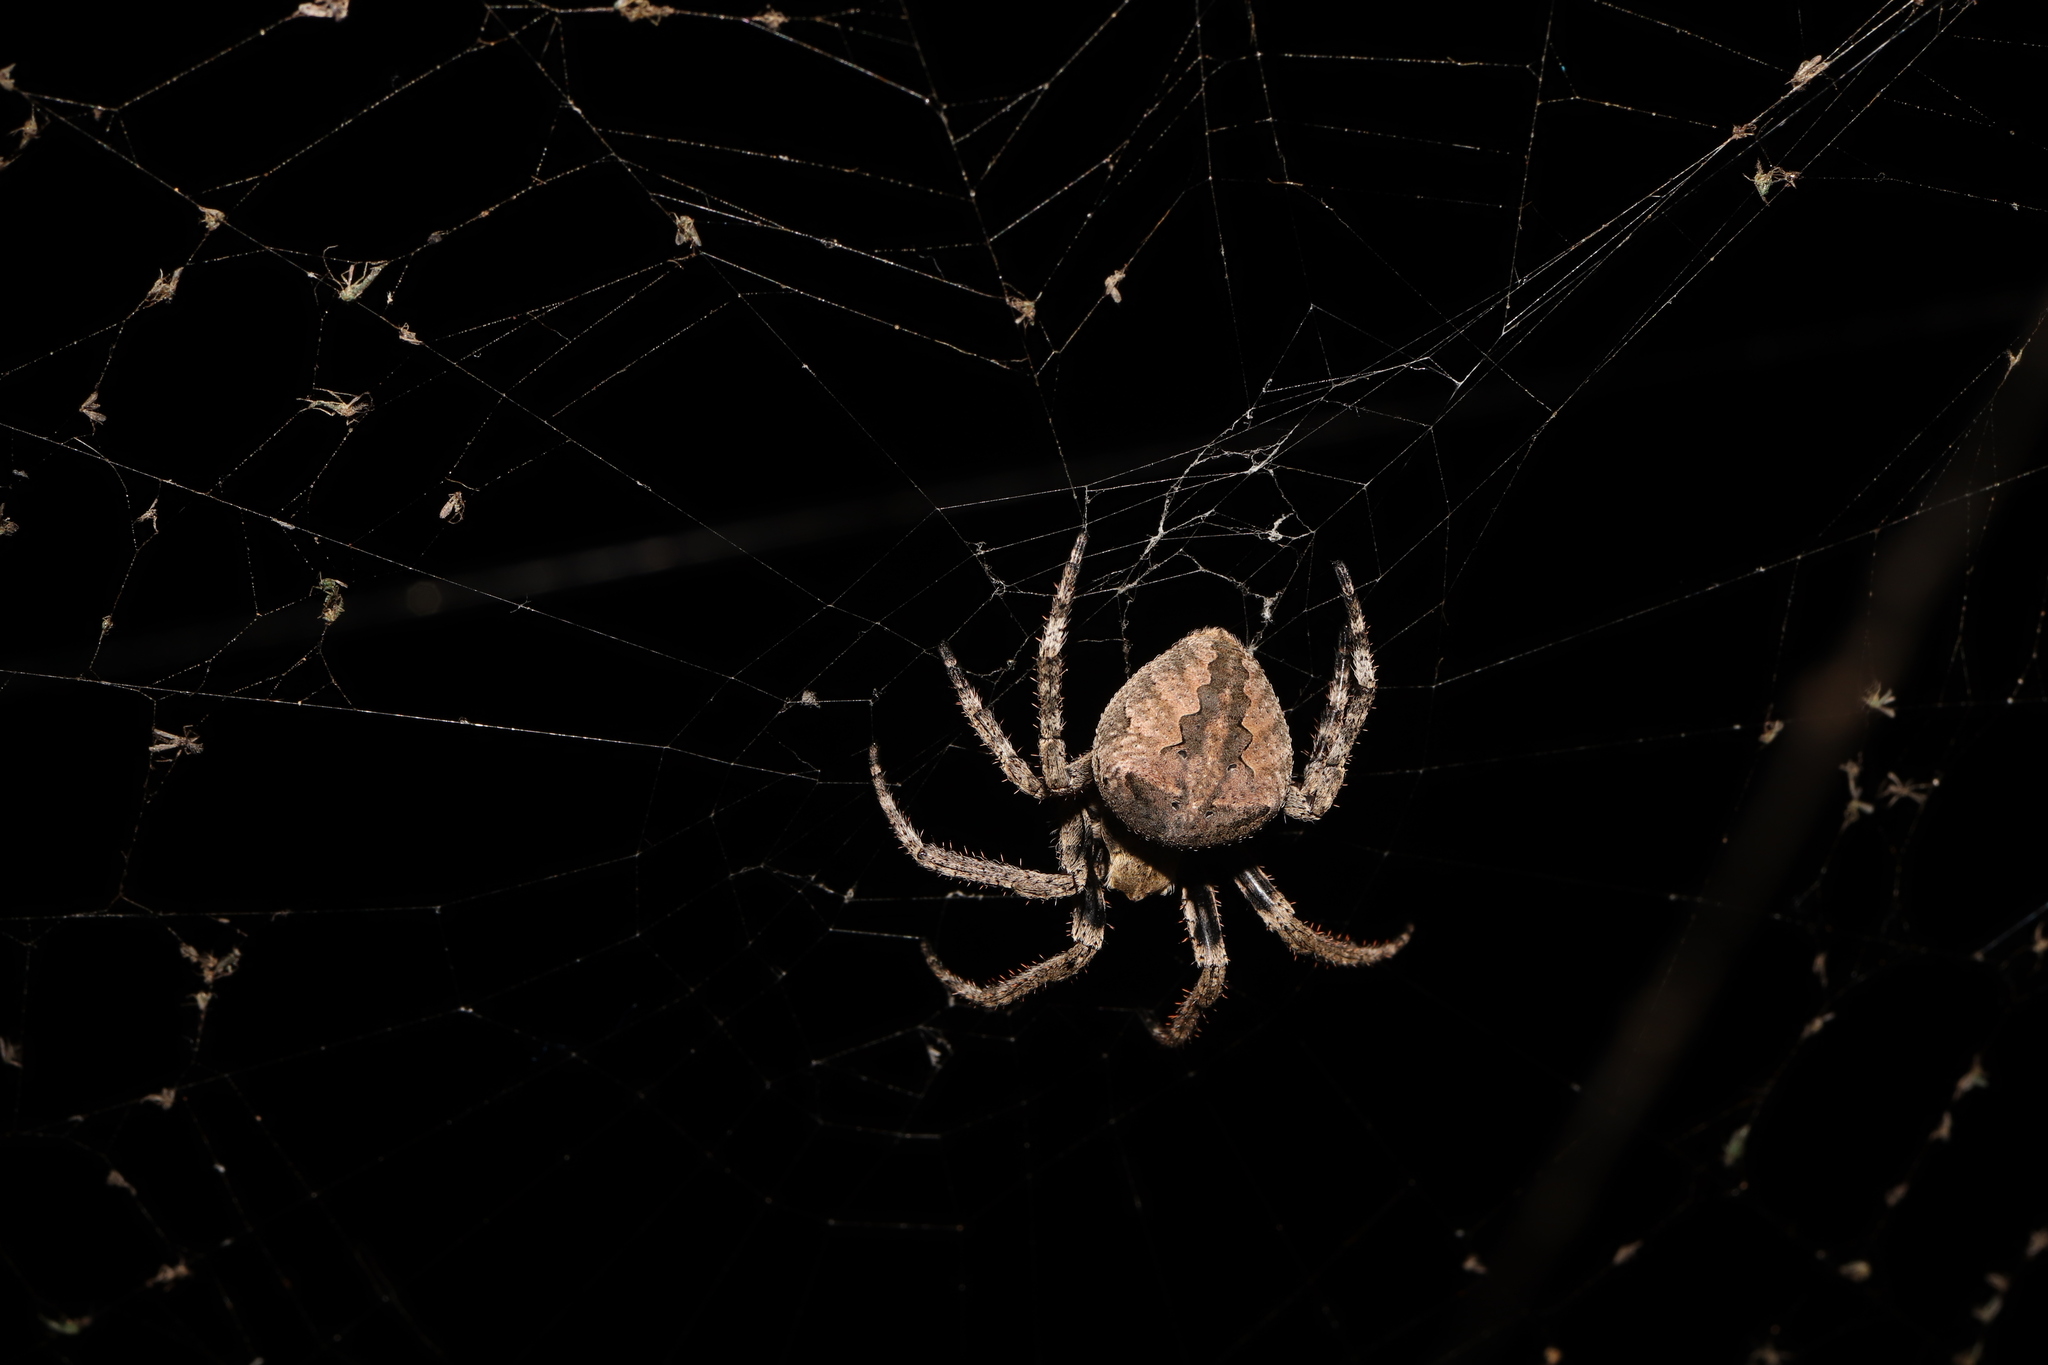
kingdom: Animalia
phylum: Arthropoda
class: Arachnida
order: Araneae
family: Araneidae
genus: Araneus
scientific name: Araneus ventricosus
